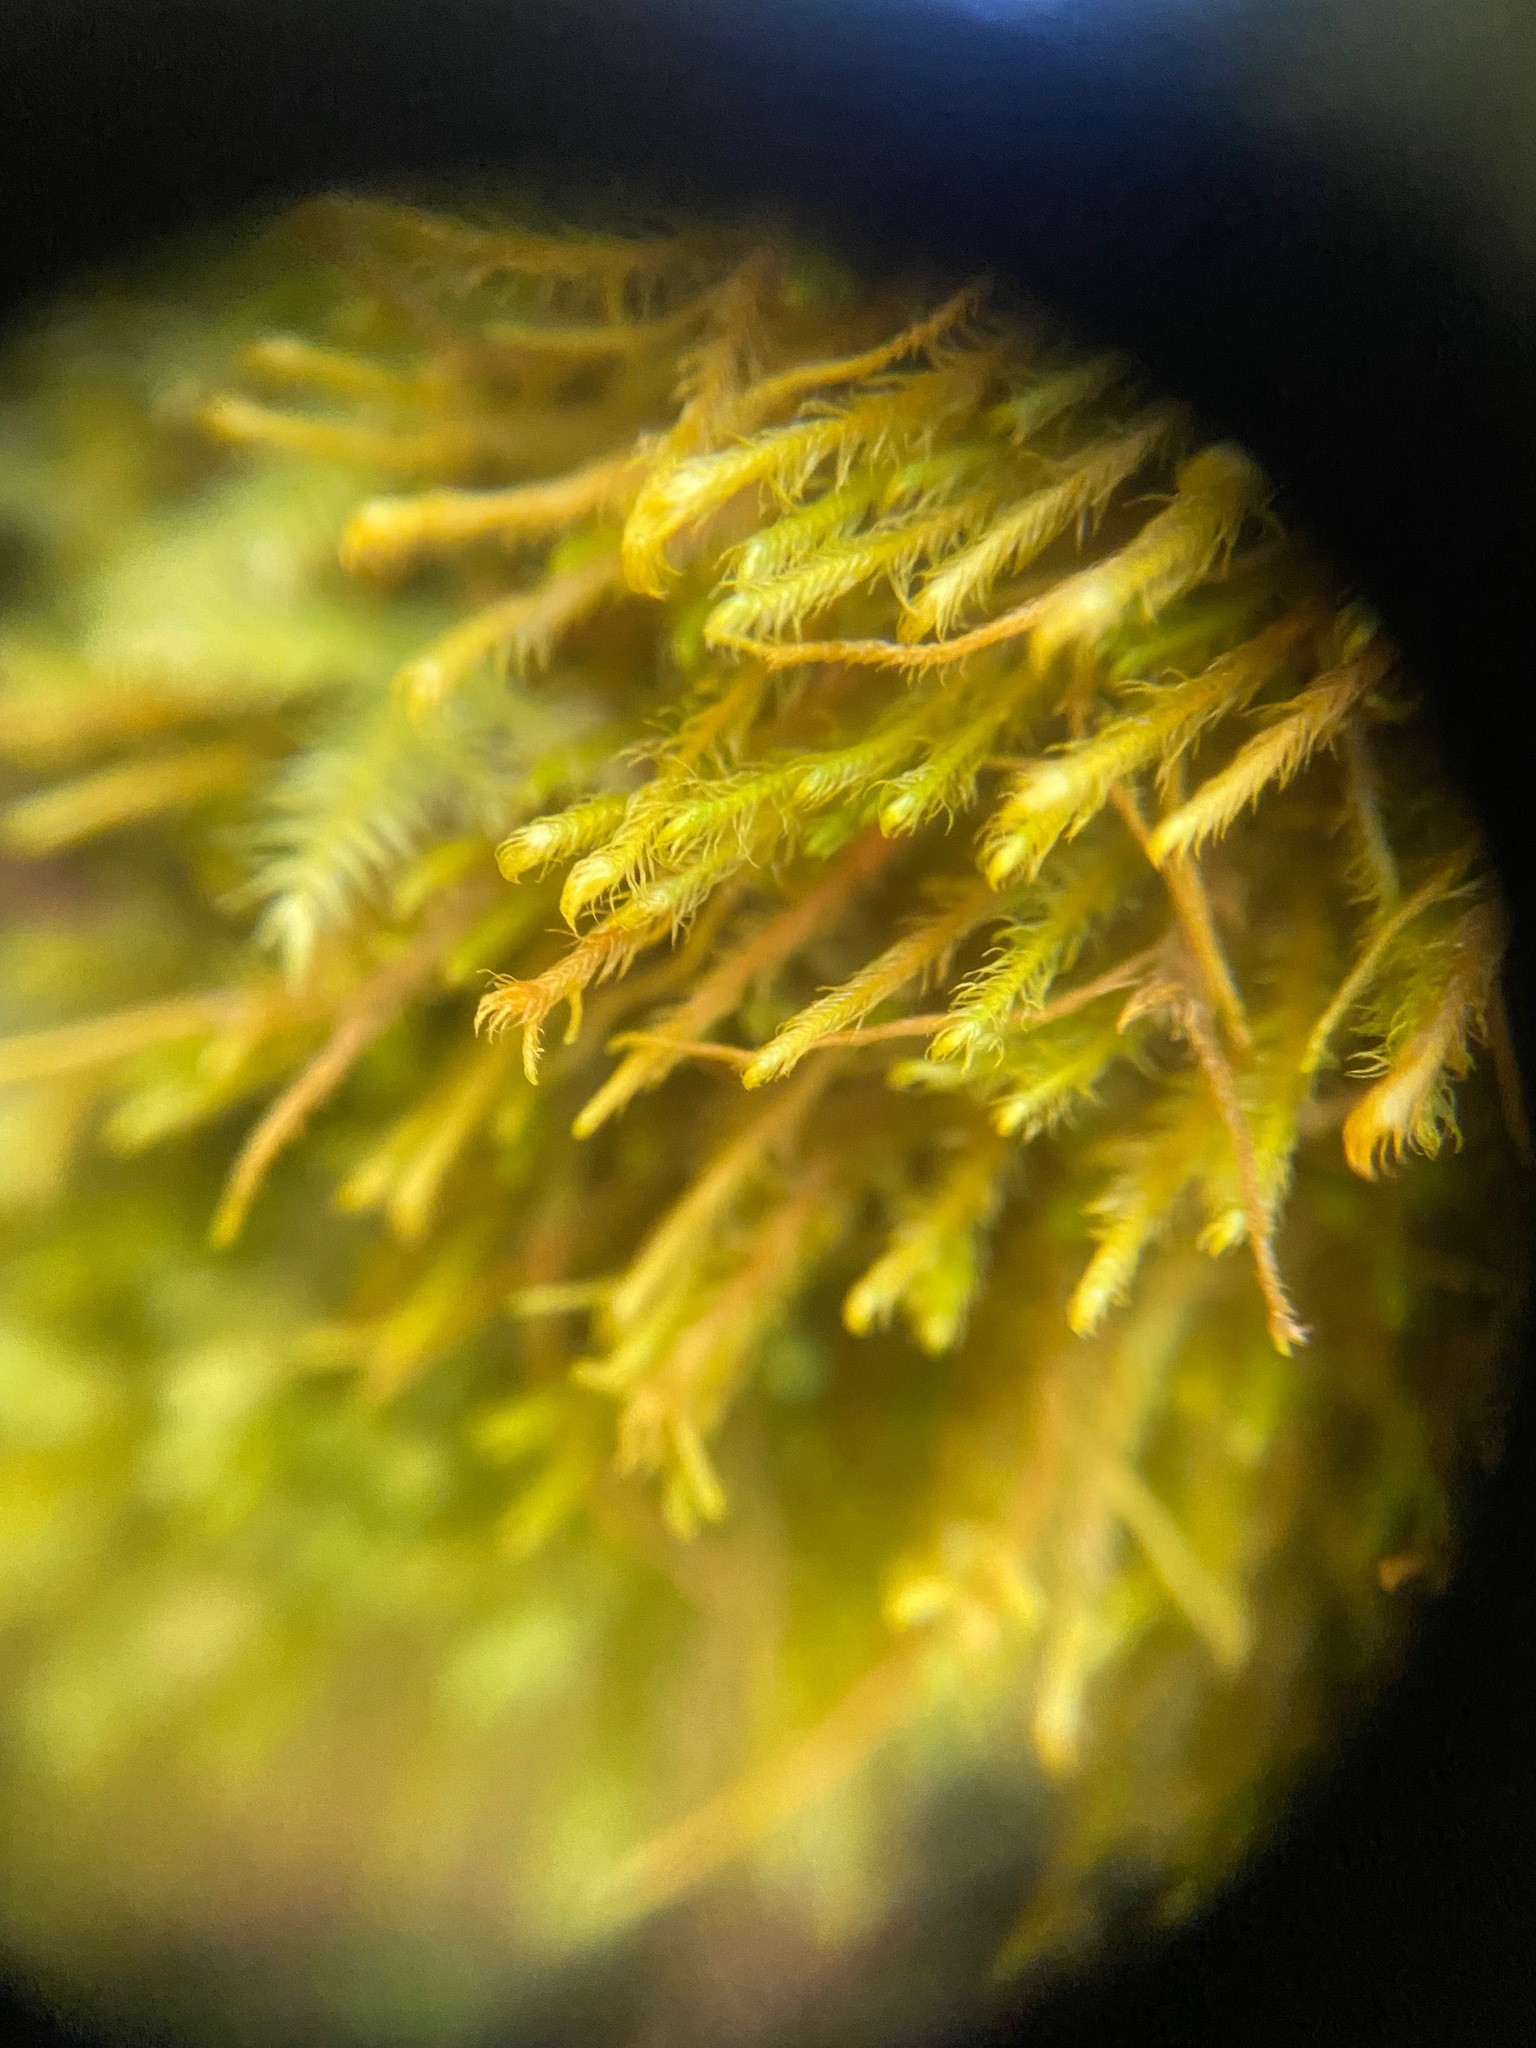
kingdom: Plantae
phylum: Marchantiophyta
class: Jungermanniopsida
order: Jungermanniales
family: Herbertaceae
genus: Herbertus
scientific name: Herbertus aduncus
